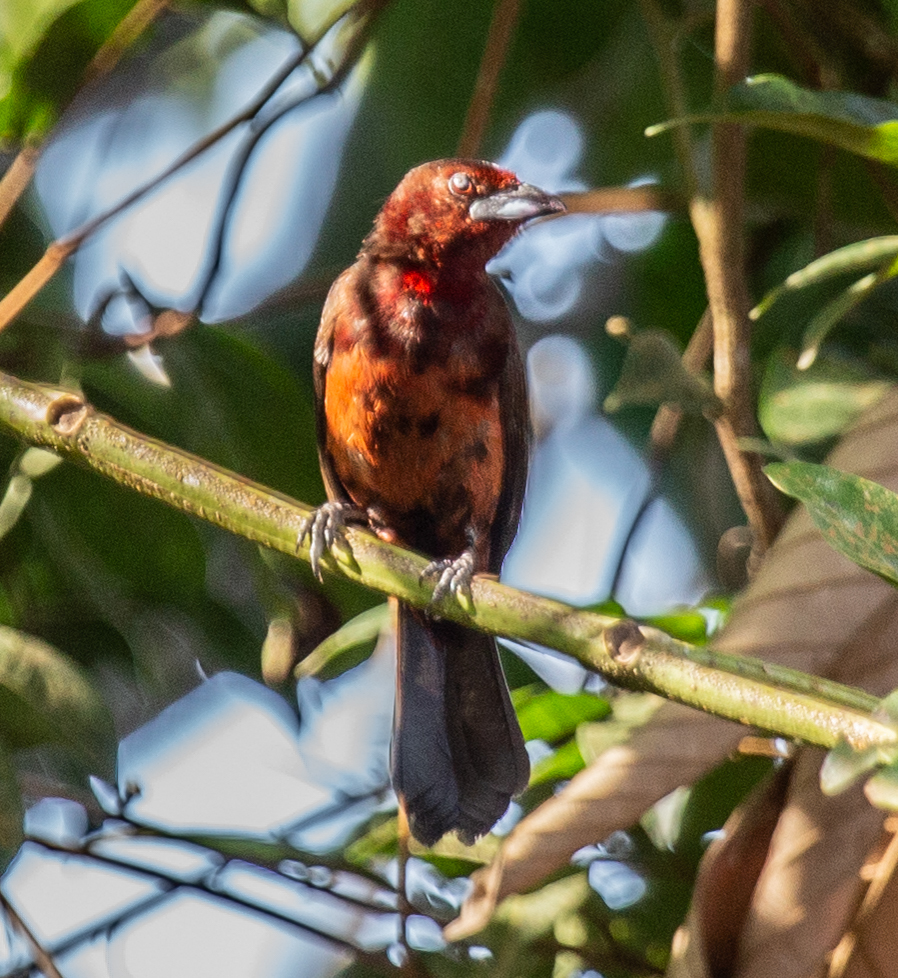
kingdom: Animalia
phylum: Chordata
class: Aves
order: Passeriformes
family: Thraupidae
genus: Ramphocelus
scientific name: Ramphocelus carbo
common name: Silver-beaked tanager
